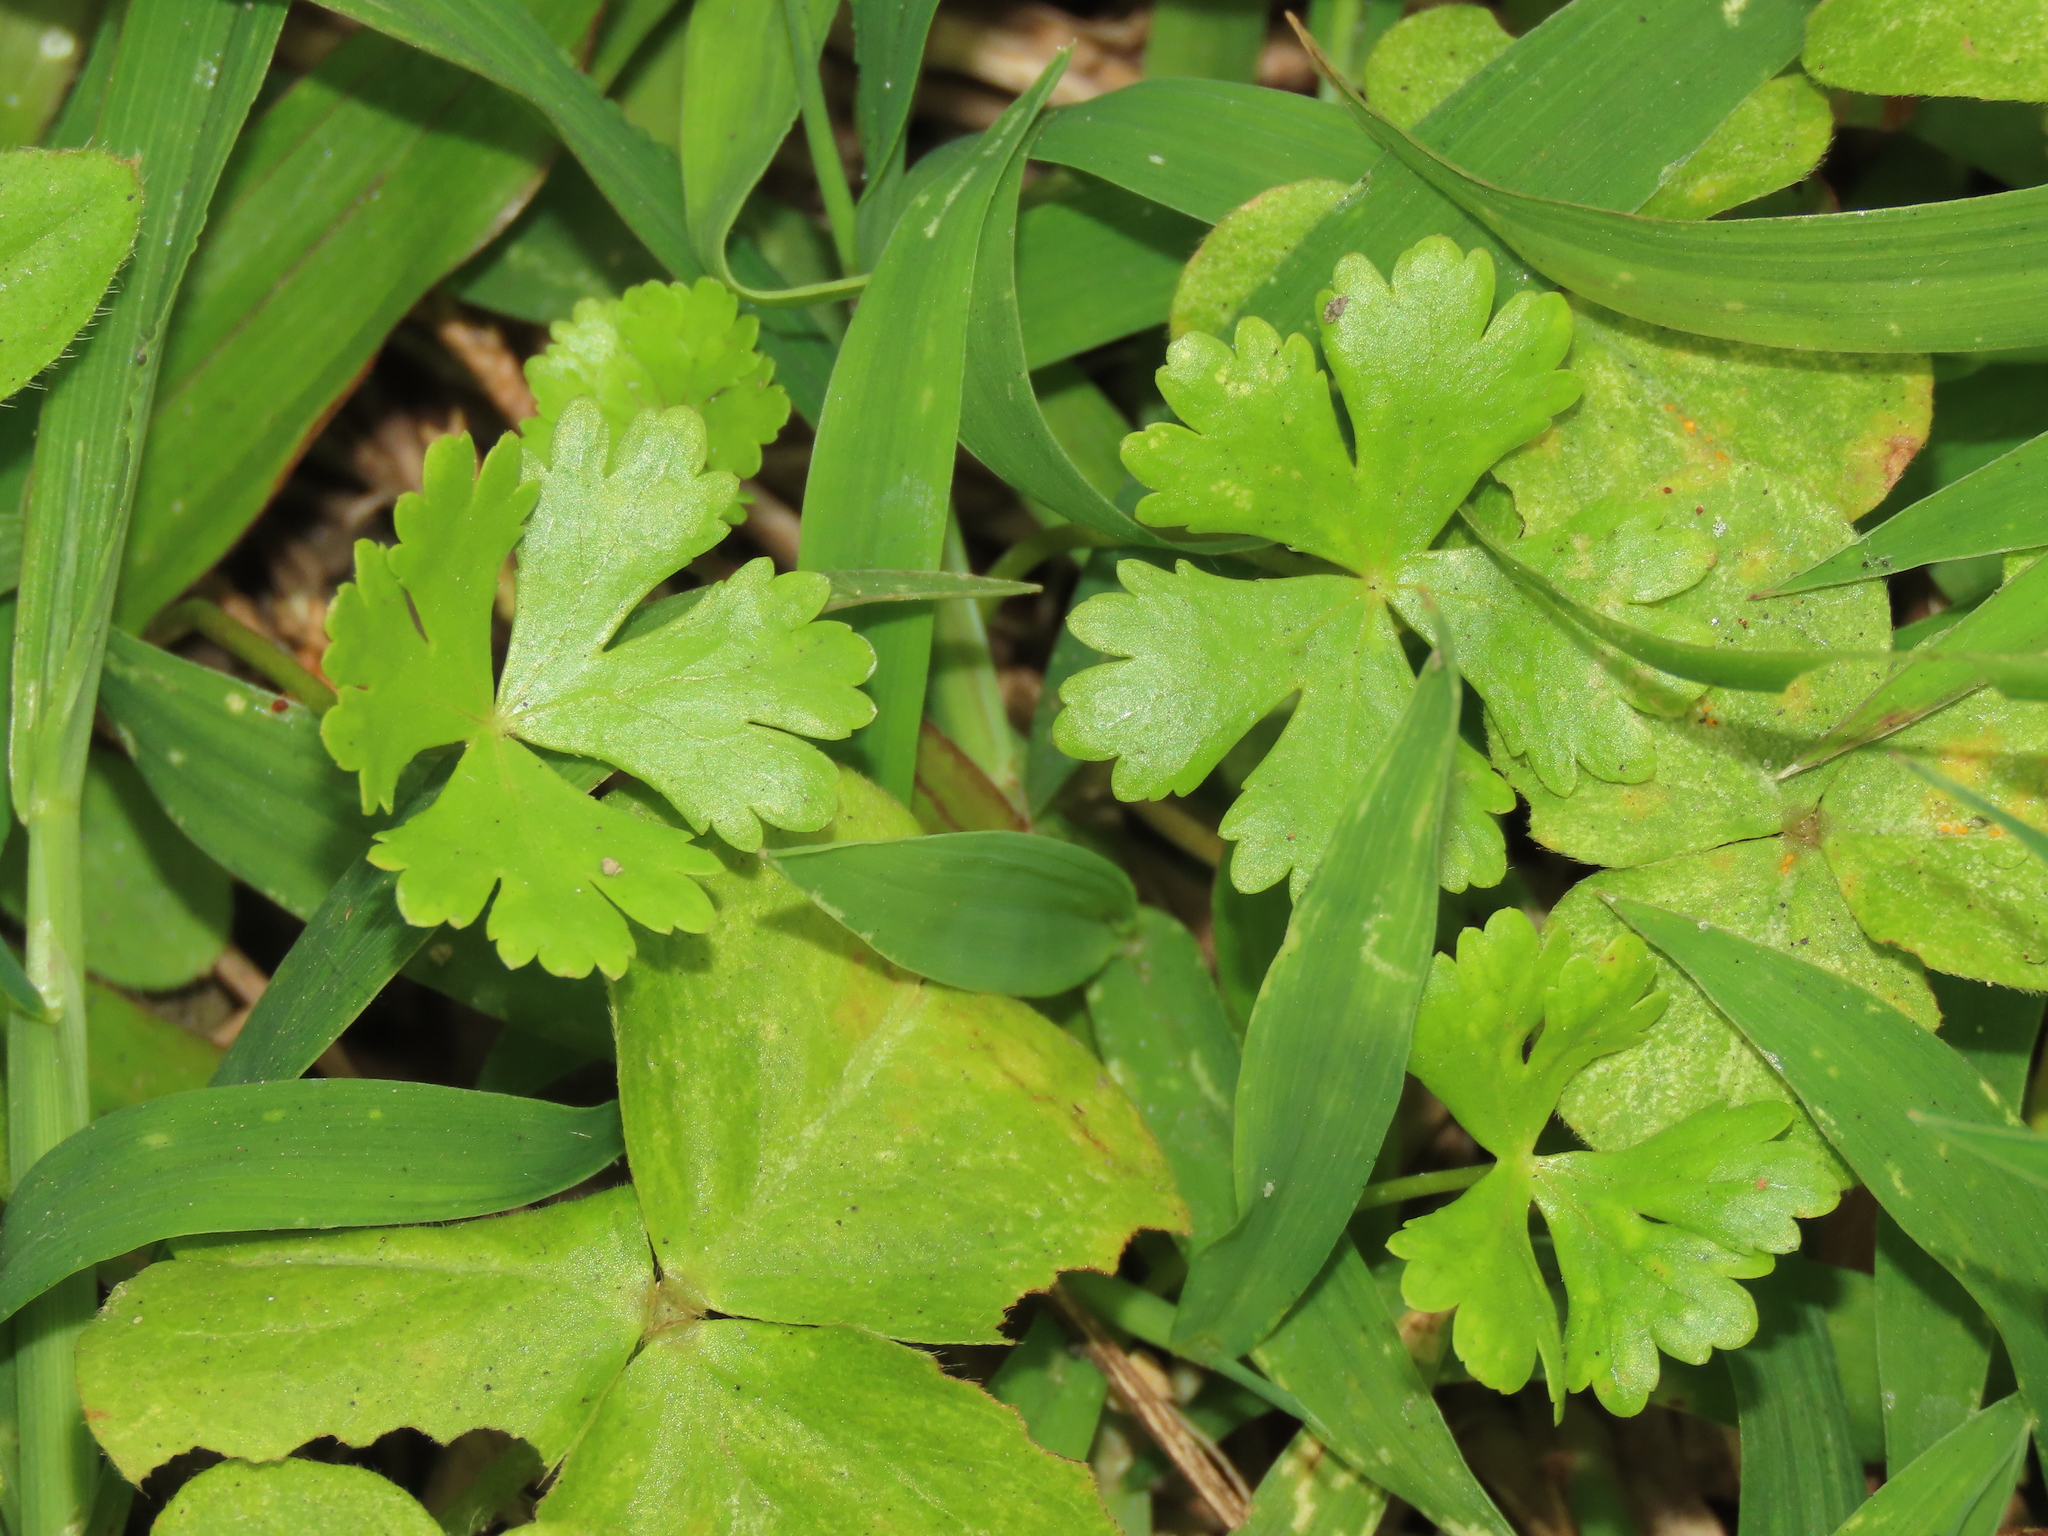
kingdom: Plantae
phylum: Tracheophyta
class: Magnoliopsida
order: Apiales
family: Araliaceae
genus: Hydrocotyle
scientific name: Hydrocotyle batrachium
